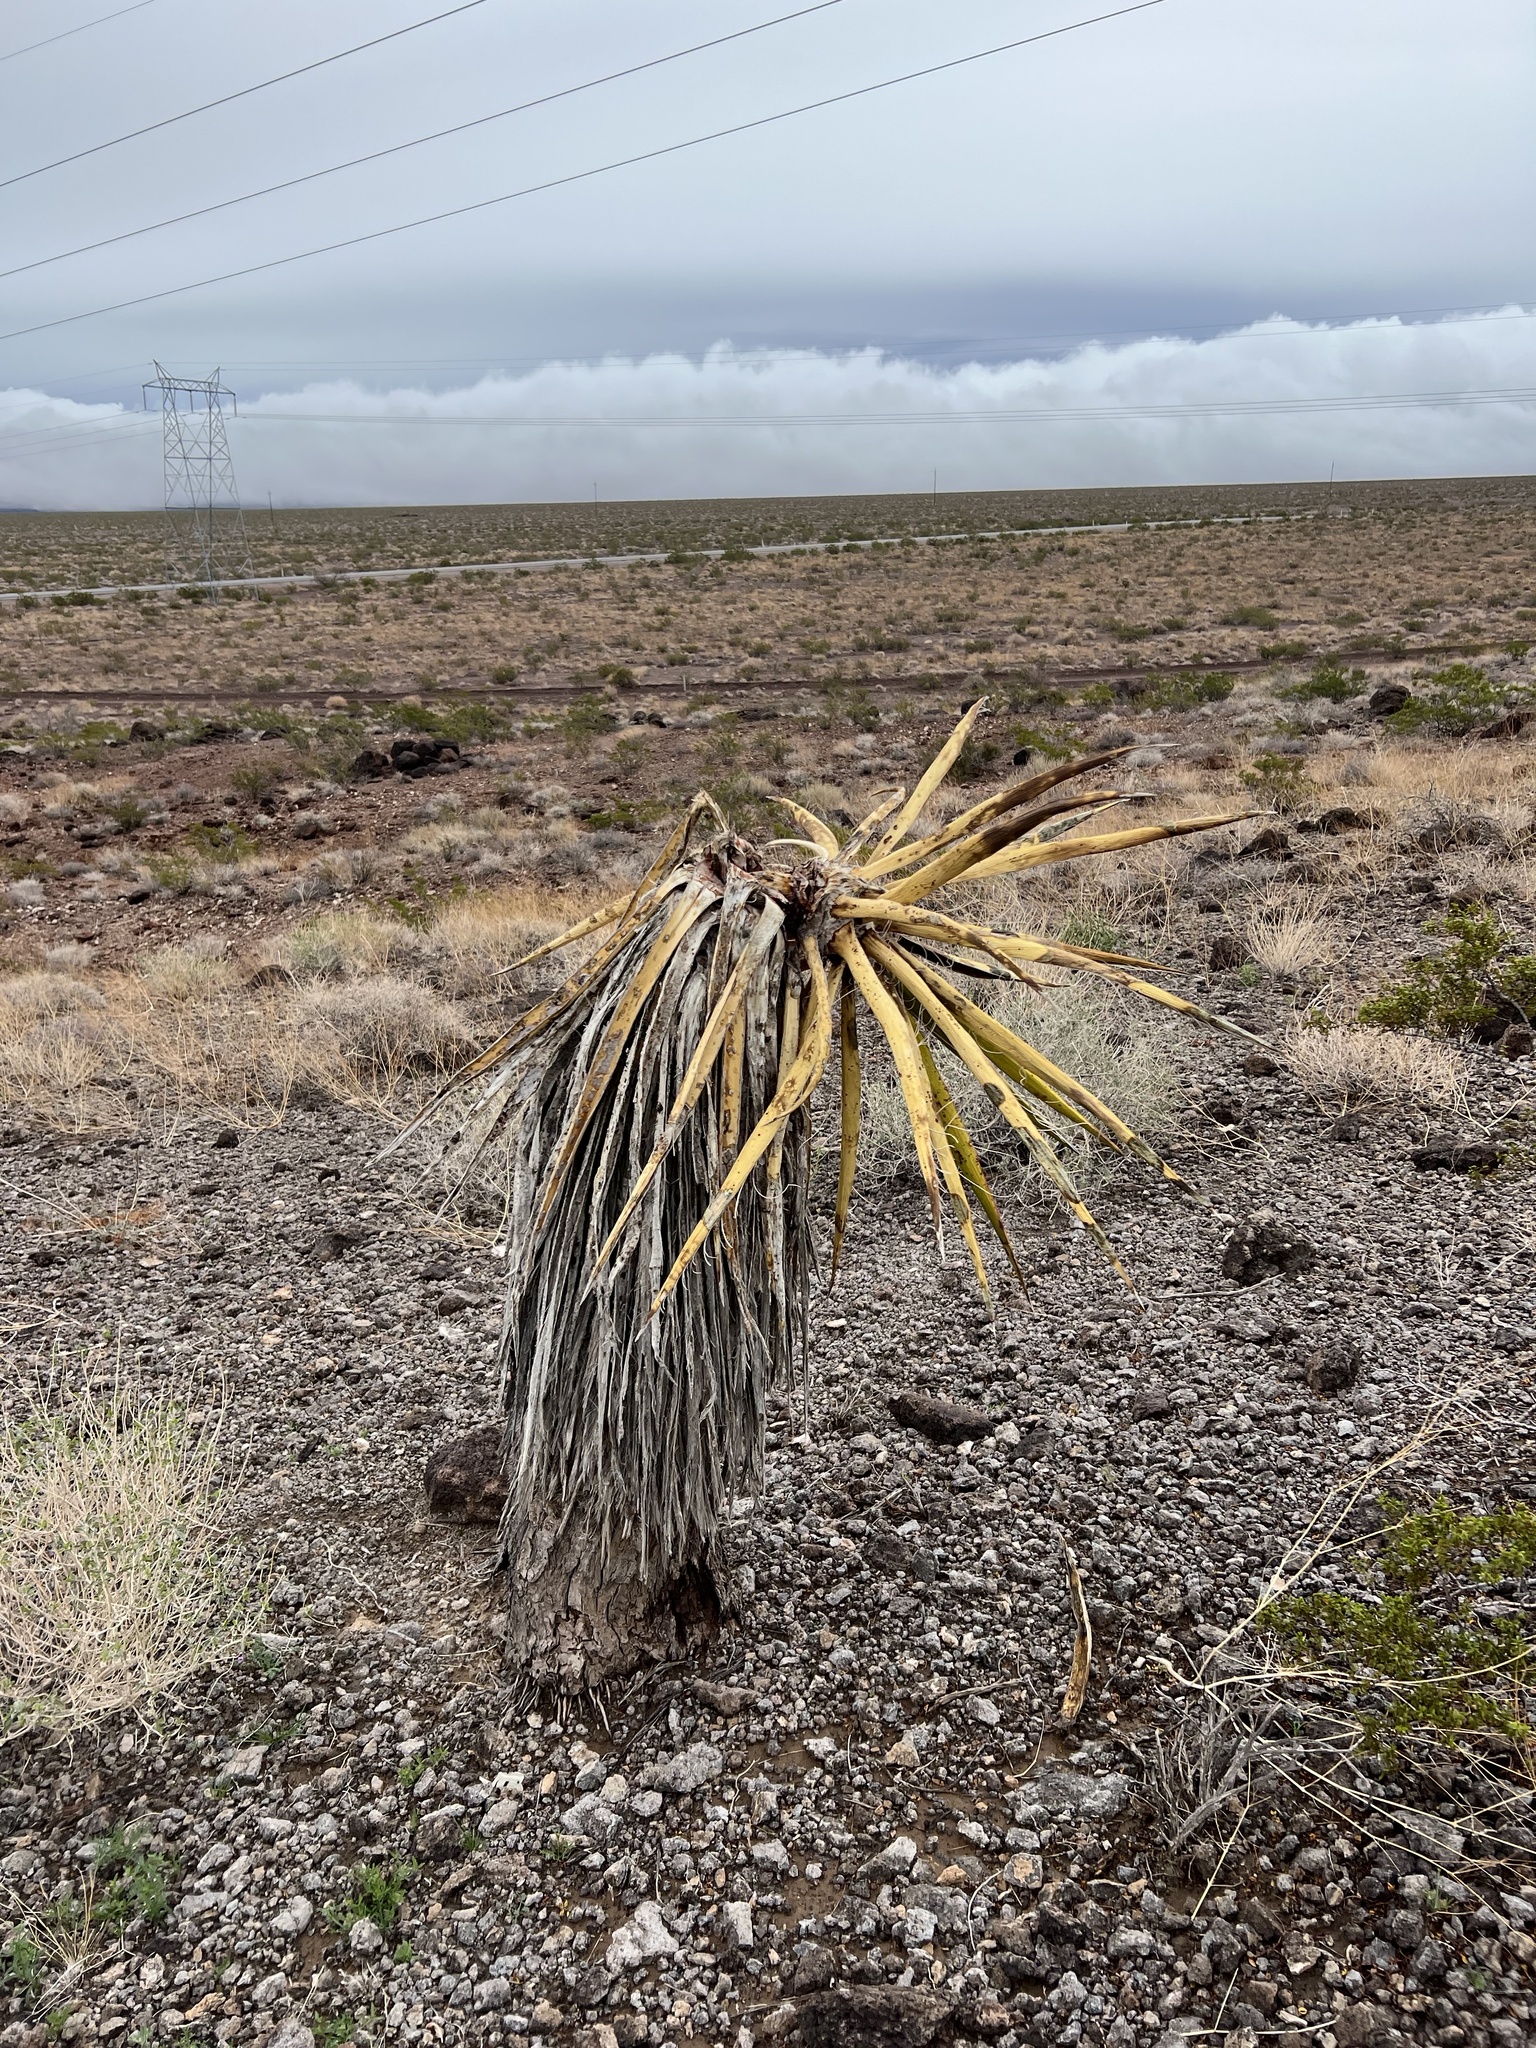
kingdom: Plantae
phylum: Tracheophyta
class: Liliopsida
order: Asparagales
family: Asparagaceae
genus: Yucca
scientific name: Yucca schidigera
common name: Mojave yucca
